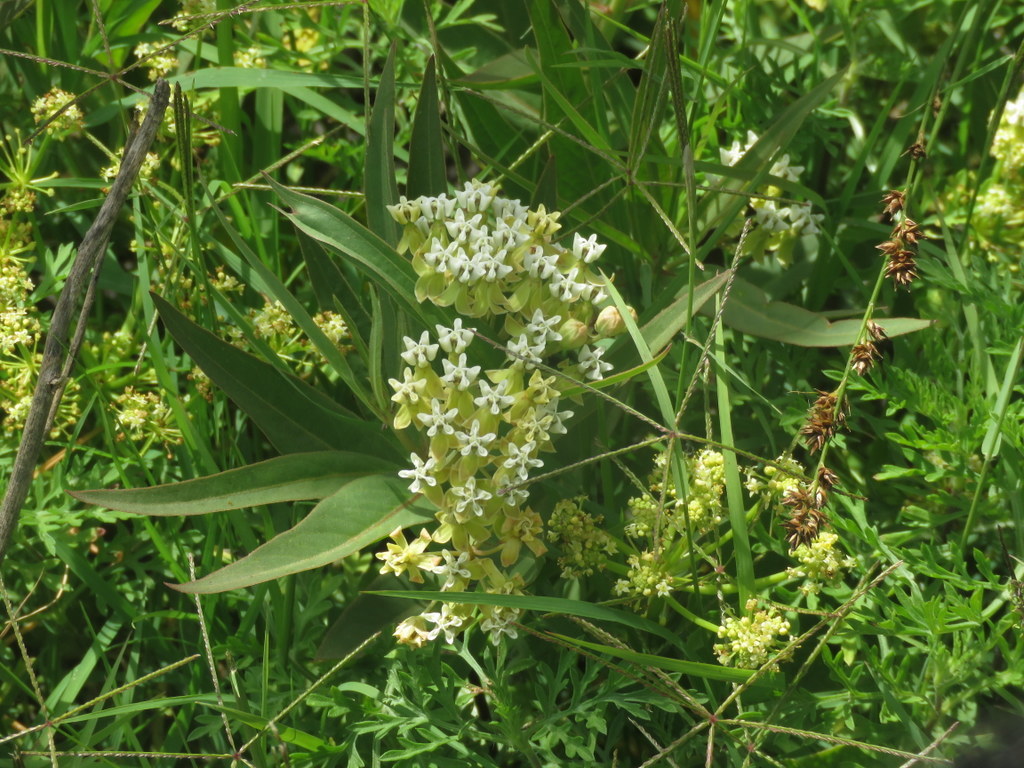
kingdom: Plantae
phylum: Tracheophyta
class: Magnoliopsida
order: Gentianales
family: Apocynaceae
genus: Asclepias
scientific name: Asclepias mellodora
